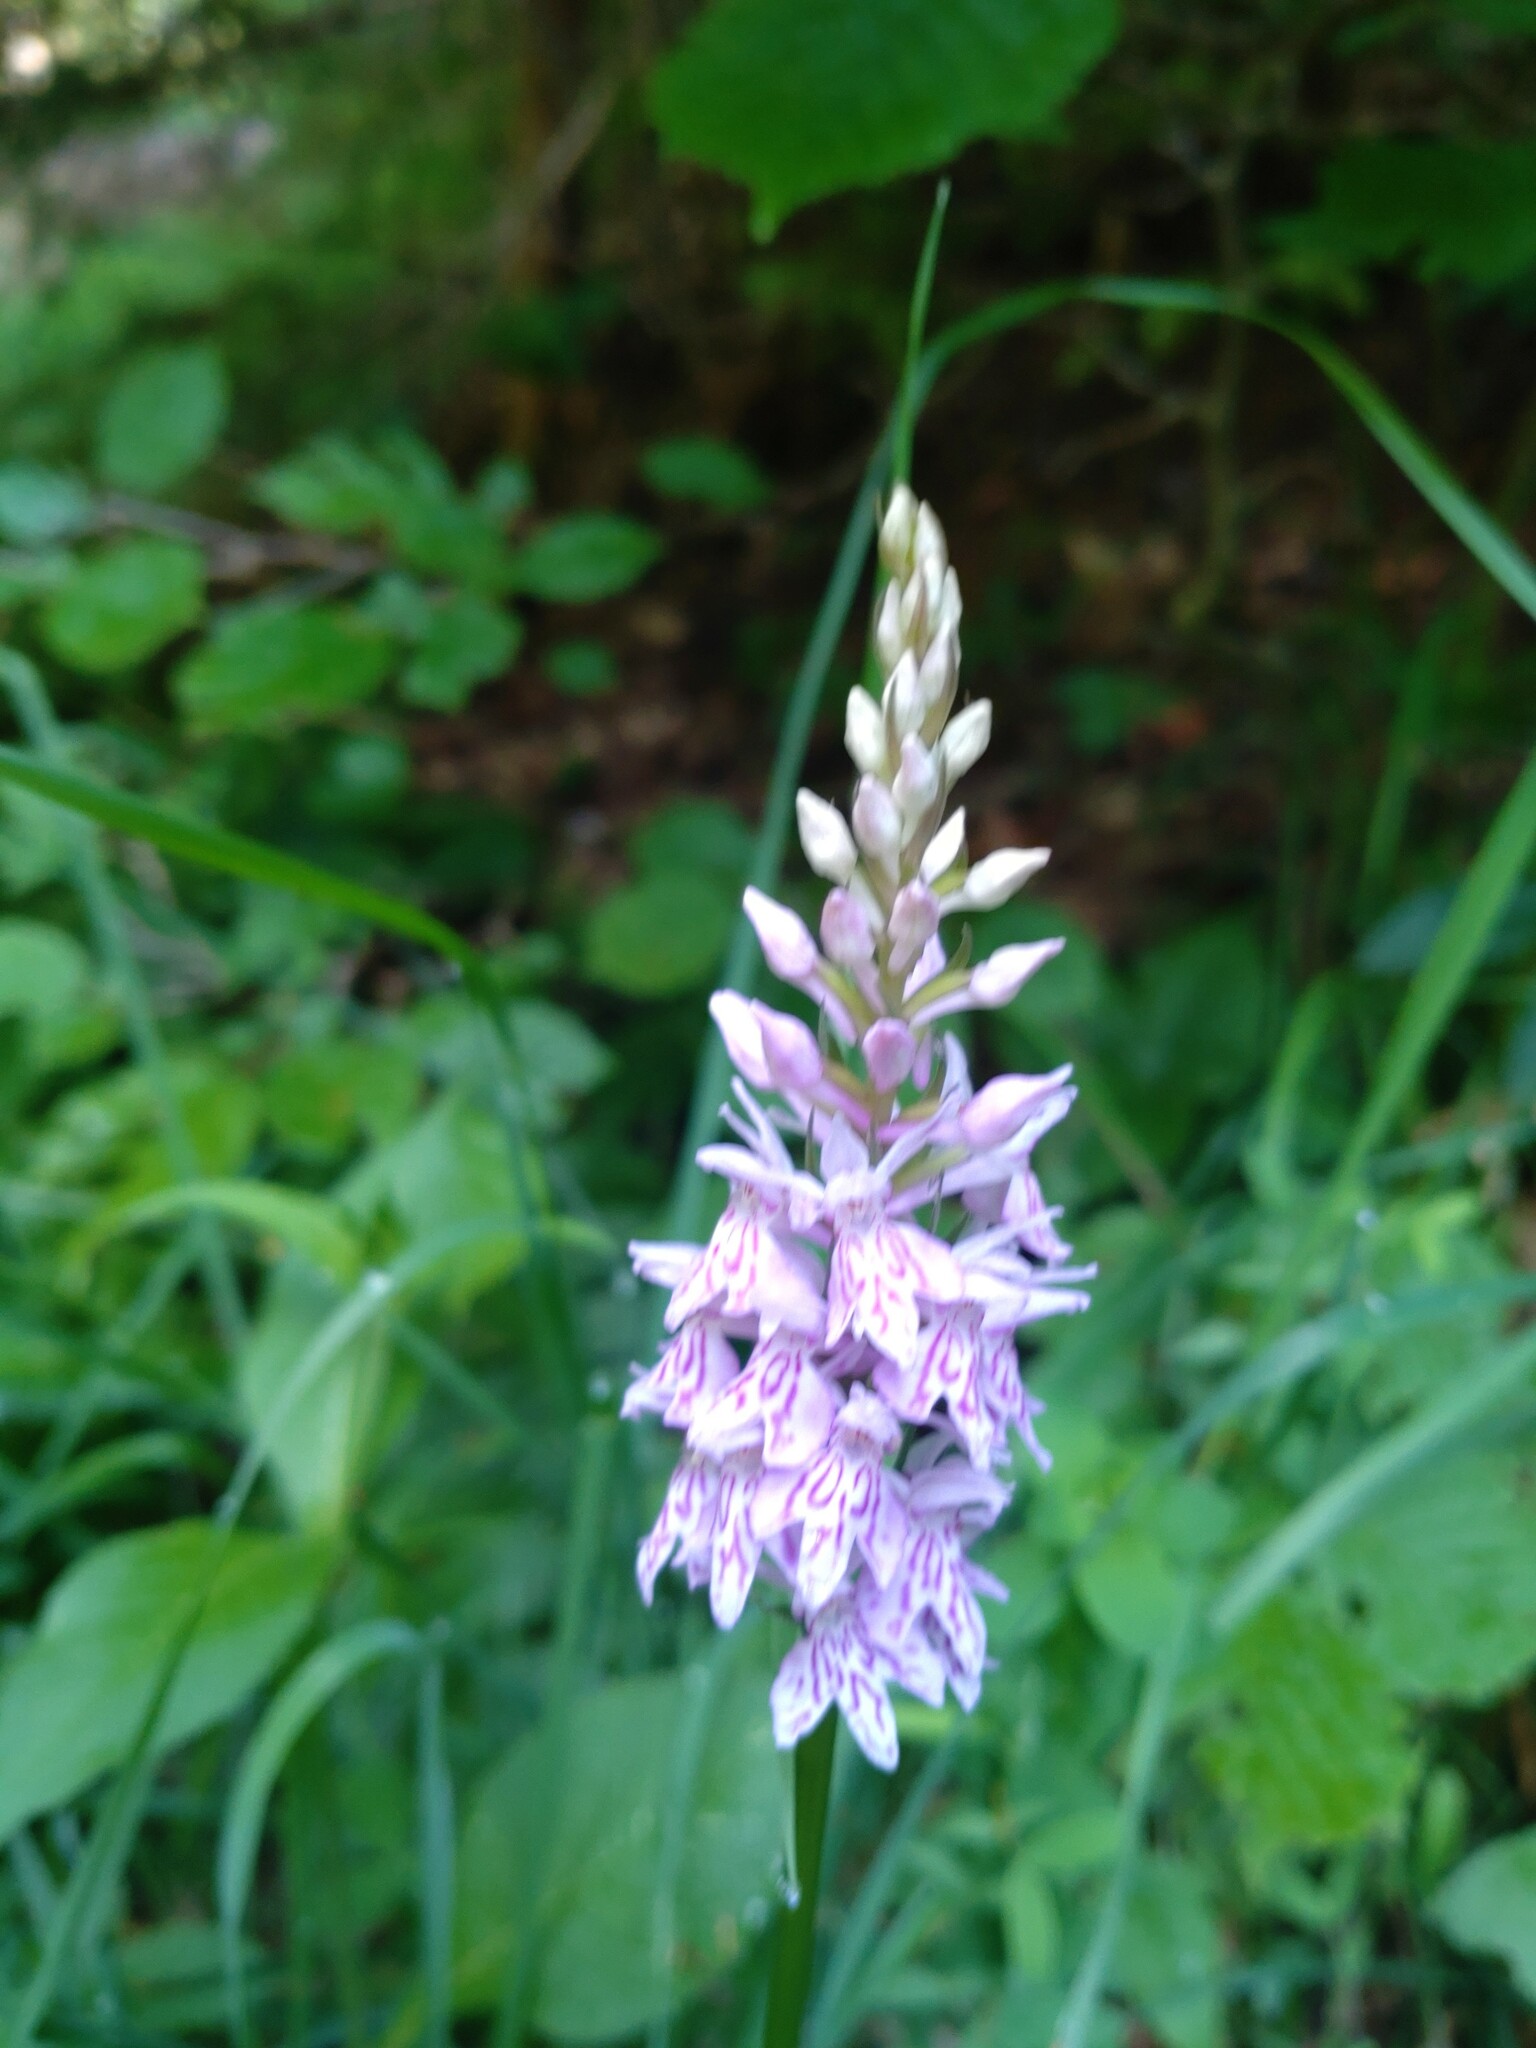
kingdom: Plantae
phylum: Tracheophyta
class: Liliopsida
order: Asparagales
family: Orchidaceae
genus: Dactylorhiza
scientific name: Dactylorhiza maculata
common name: Heath spotted-orchid
